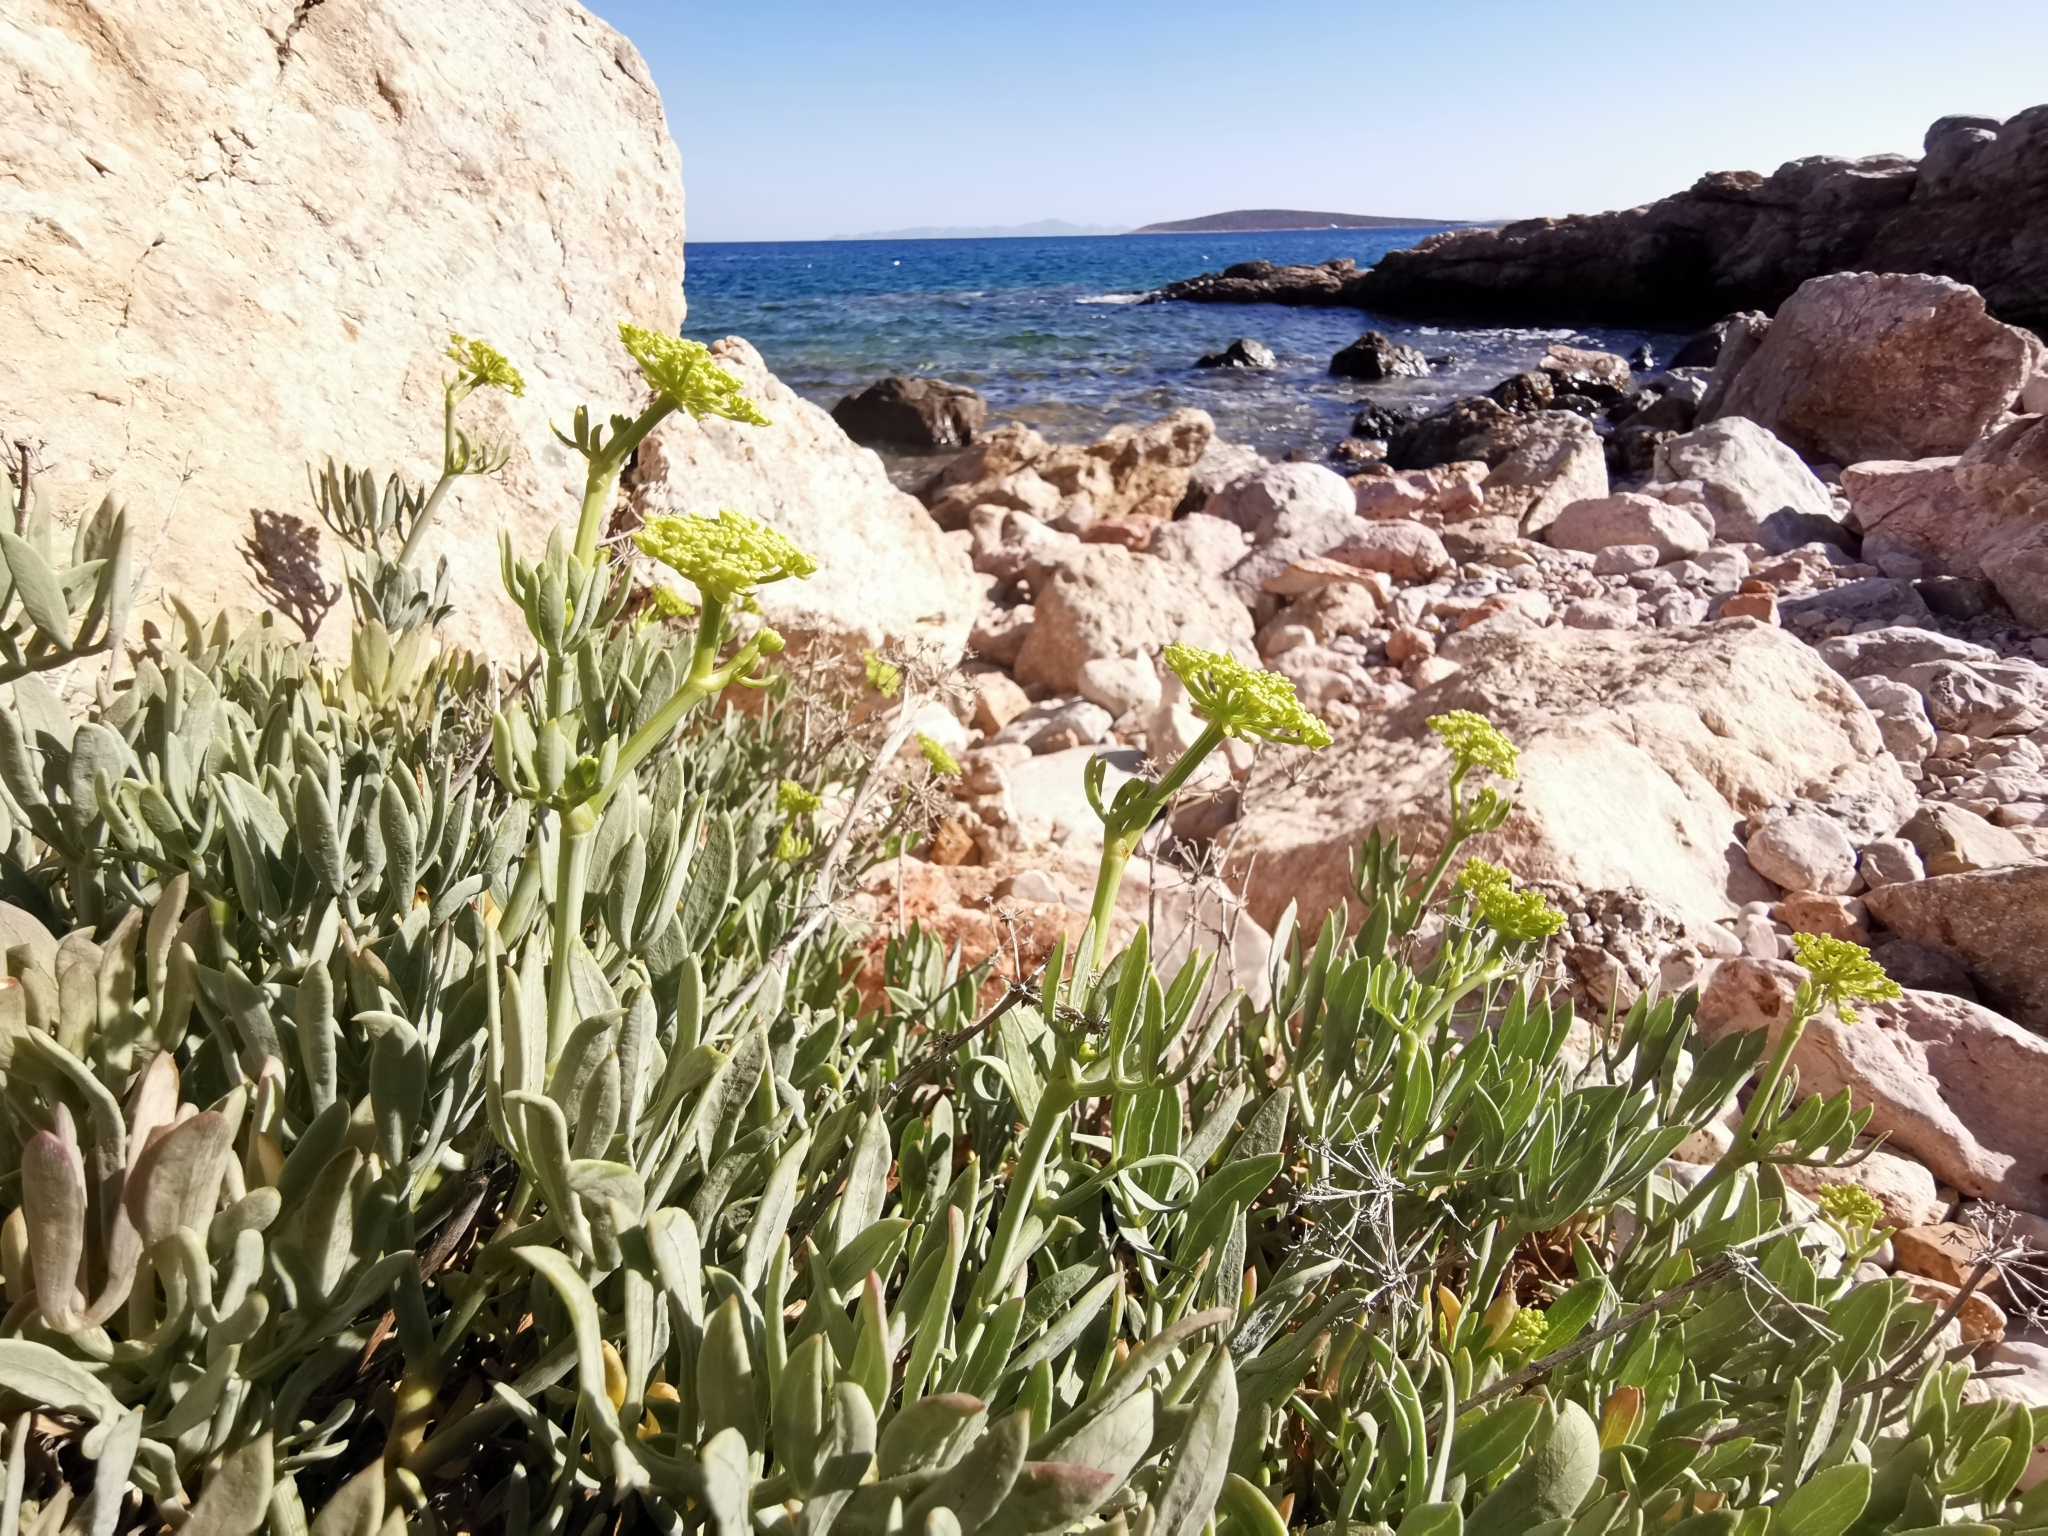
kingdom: Plantae
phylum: Tracheophyta
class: Magnoliopsida
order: Apiales
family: Apiaceae
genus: Crithmum
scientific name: Crithmum maritimum
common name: Rock samphire
